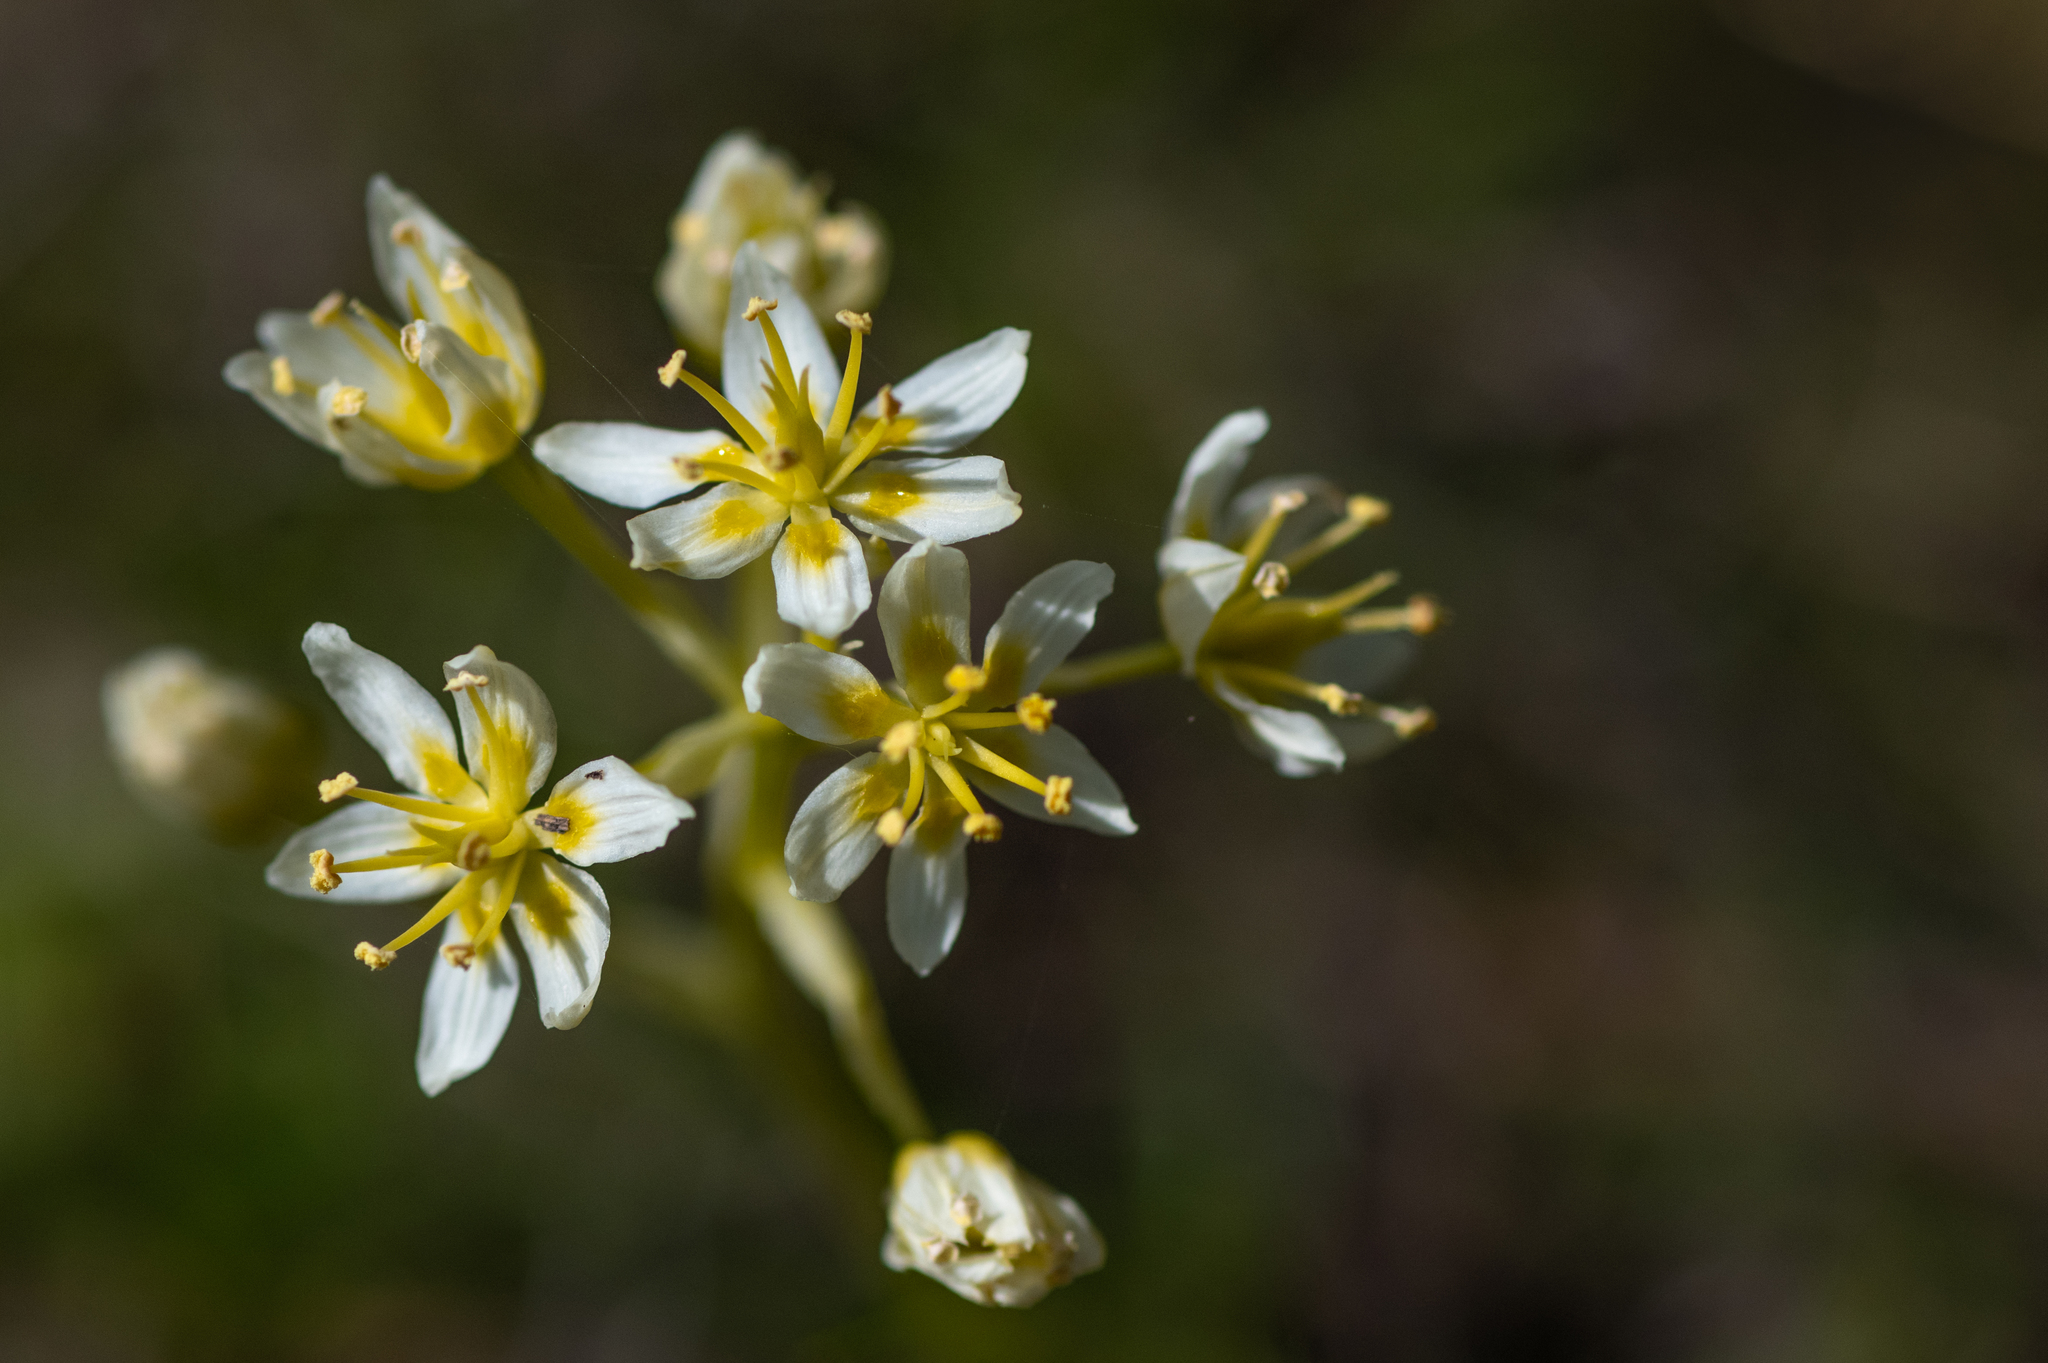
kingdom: Plantae
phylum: Tracheophyta
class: Liliopsida
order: Liliales
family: Melanthiaceae
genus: Toxicoscordion
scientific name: Toxicoscordion fremontii
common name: Fremont's death camas
